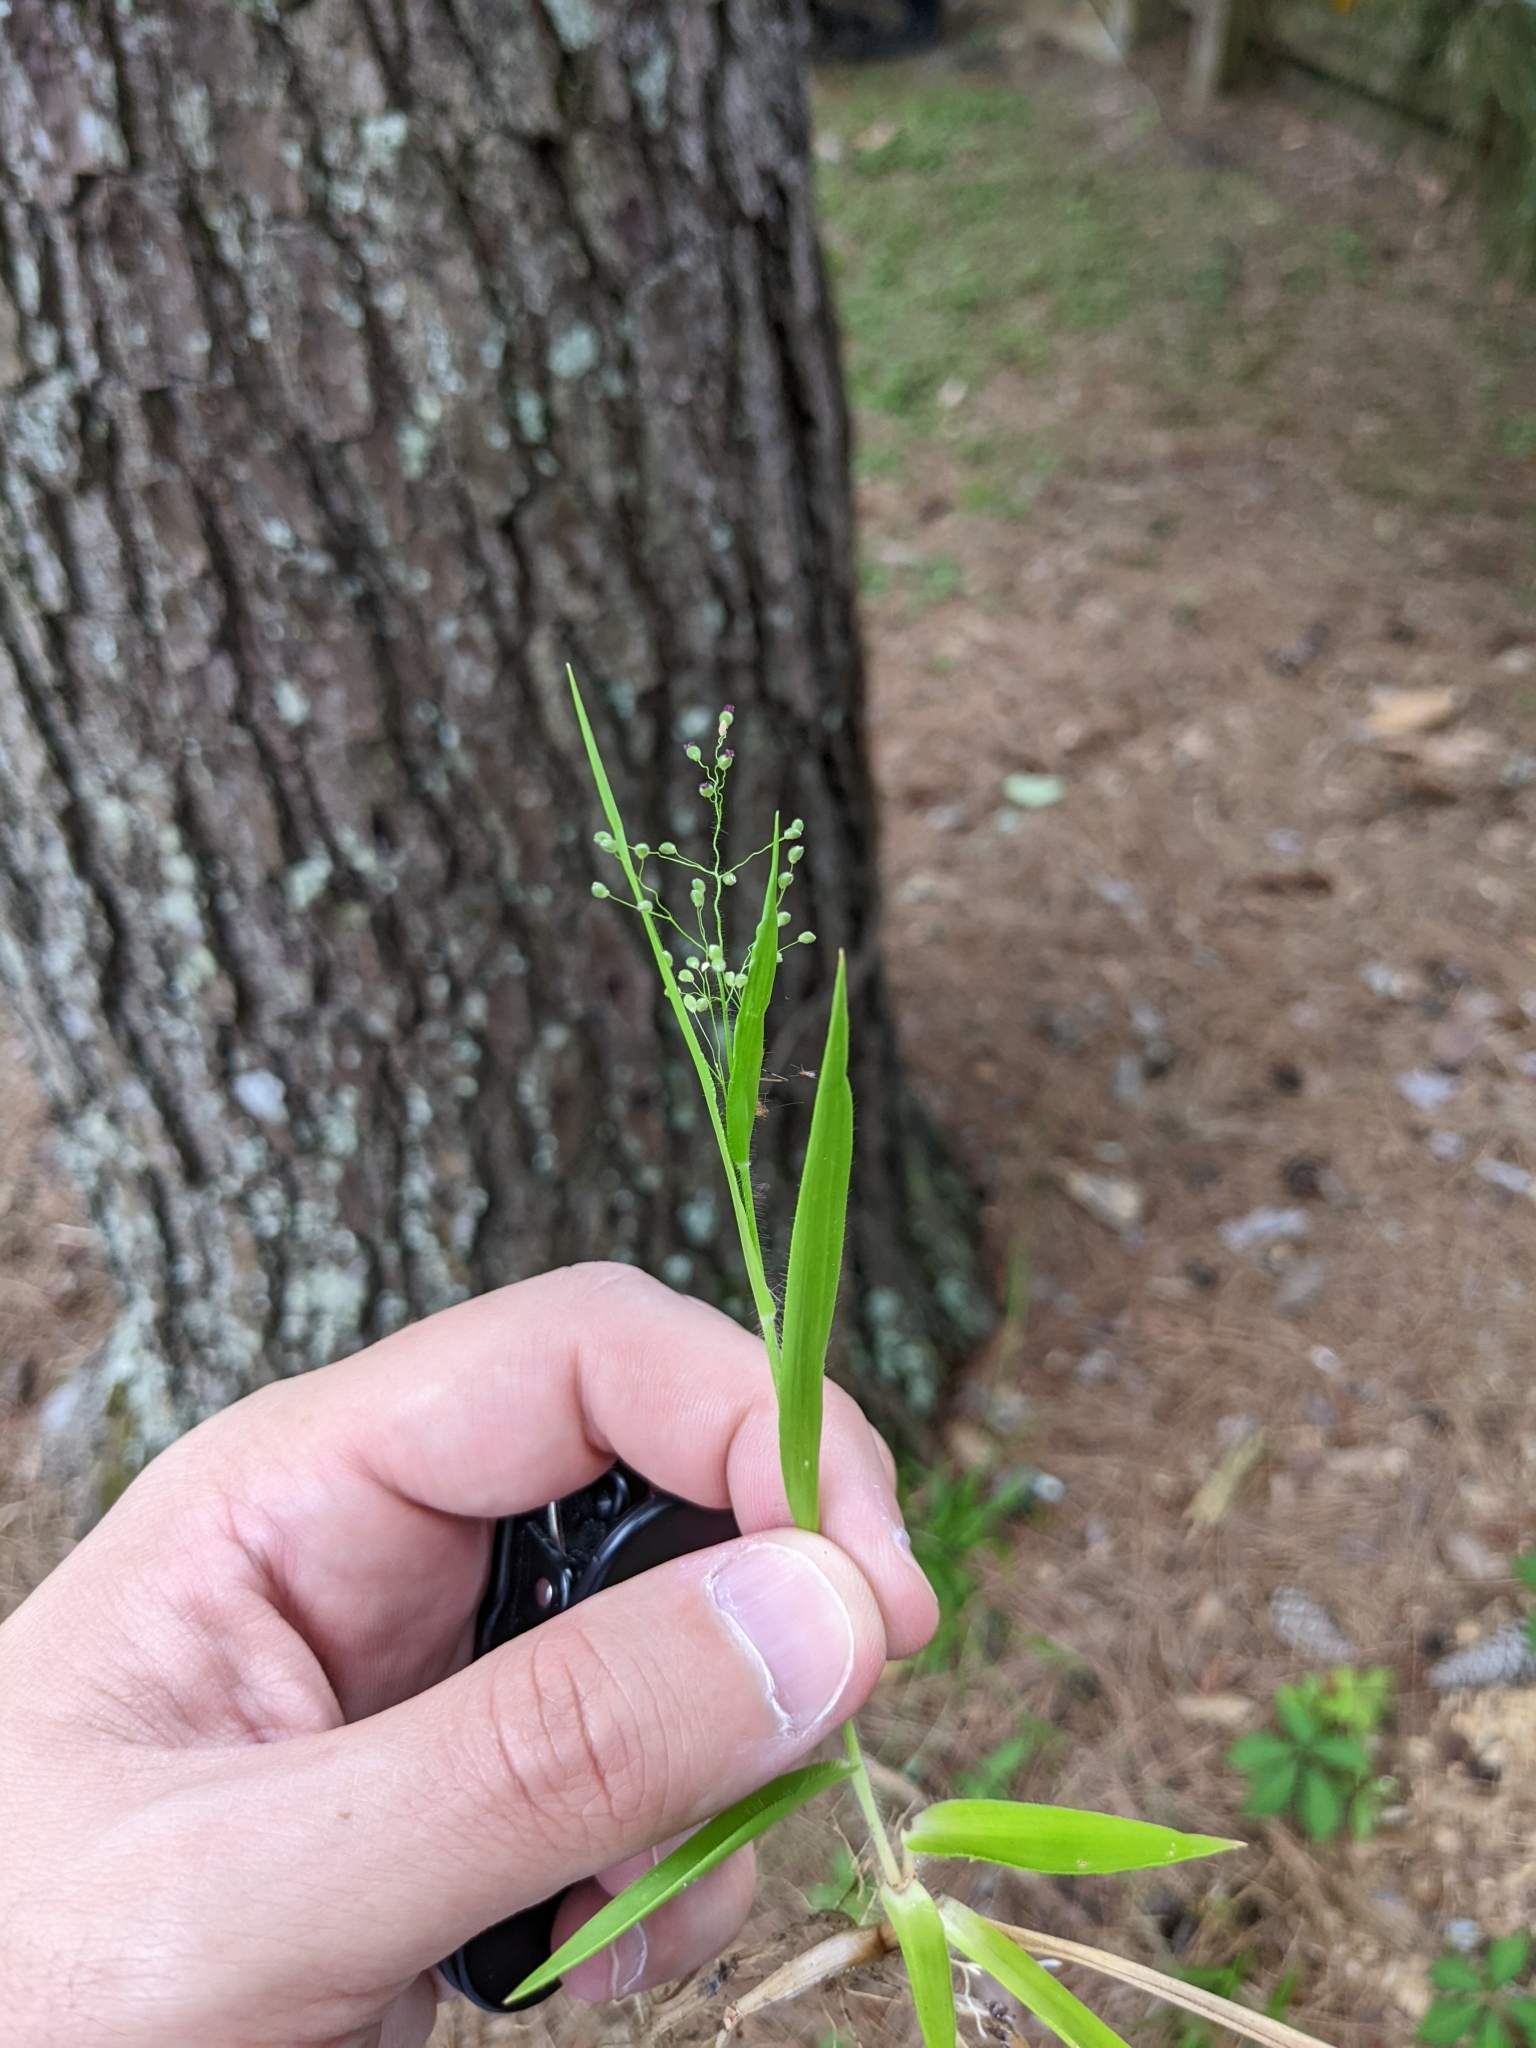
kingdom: Plantae
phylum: Tracheophyta
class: Liliopsida
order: Poales
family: Poaceae
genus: Dichanthelium
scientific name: Dichanthelium laxiflorum
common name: Soft-tuft panic grass
